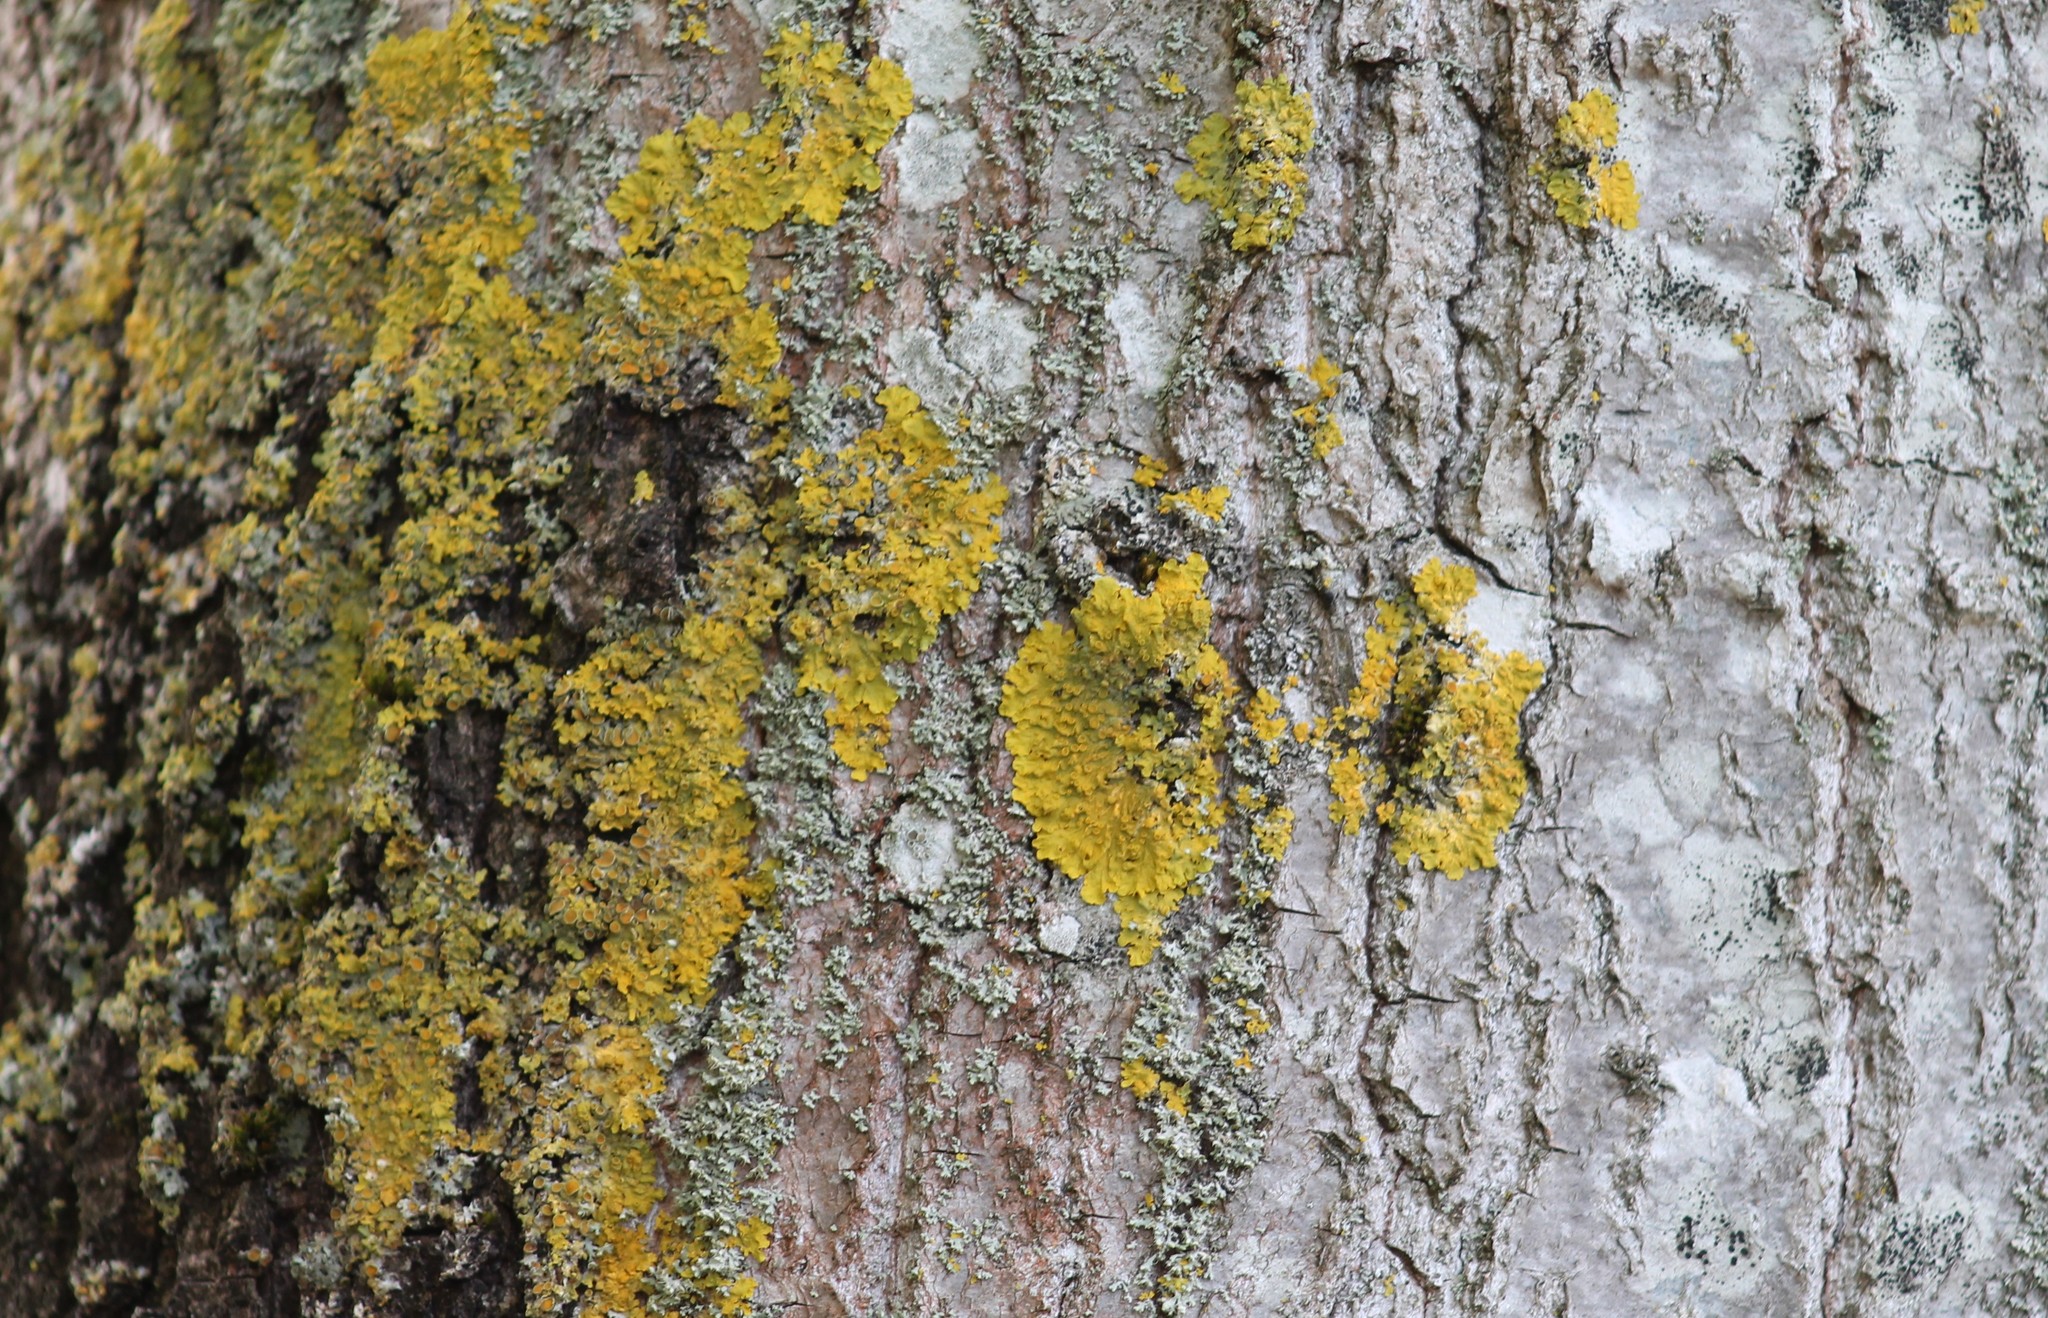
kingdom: Fungi
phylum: Ascomycota
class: Lecanoromycetes
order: Teloschistales
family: Teloschistaceae
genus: Xanthoria
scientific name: Xanthoria parietina
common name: Common orange lichen
